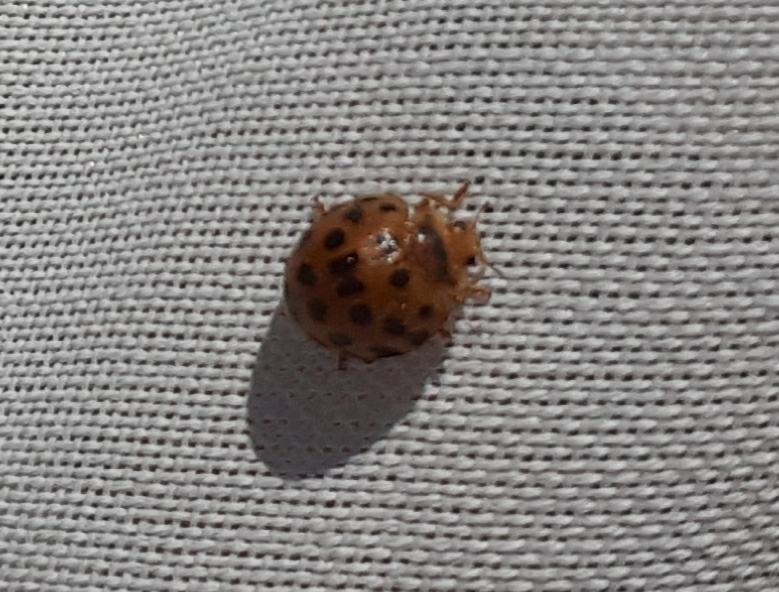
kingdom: Animalia
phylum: Arthropoda
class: Insecta
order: Coleoptera
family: Coccinellidae
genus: Henosepilachna
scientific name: Henosepilachna vigintioctopunctata
